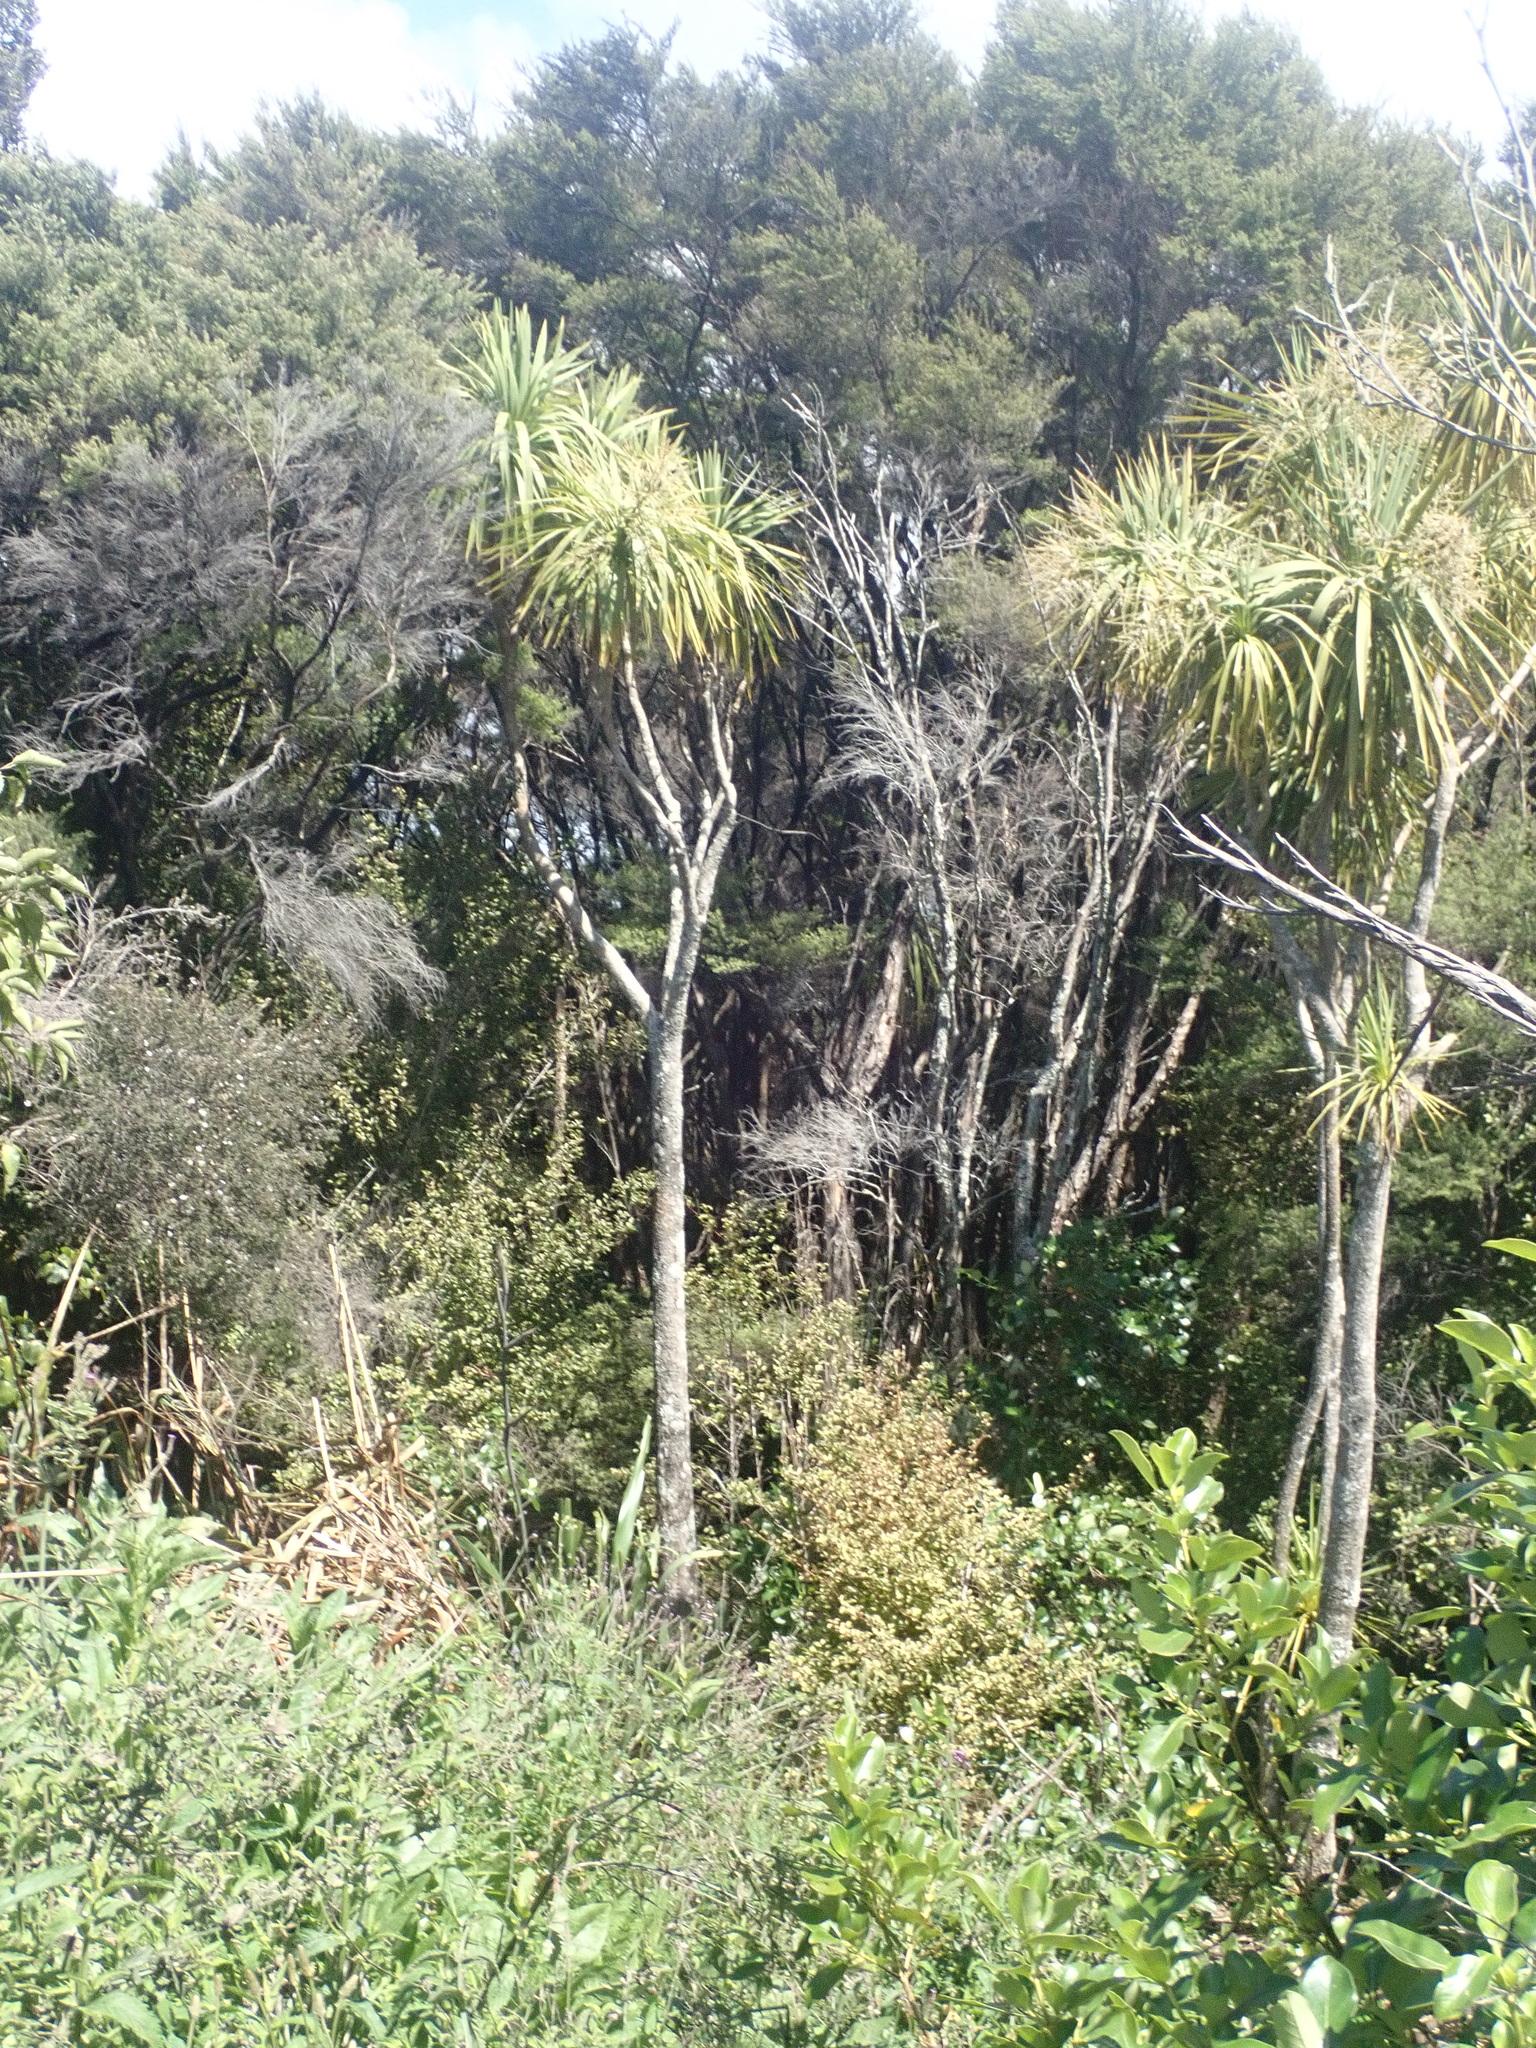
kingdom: Plantae
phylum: Tracheophyta
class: Liliopsida
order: Asparagales
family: Asparagaceae
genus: Cordyline
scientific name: Cordyline australis
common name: Cabbage-palm
